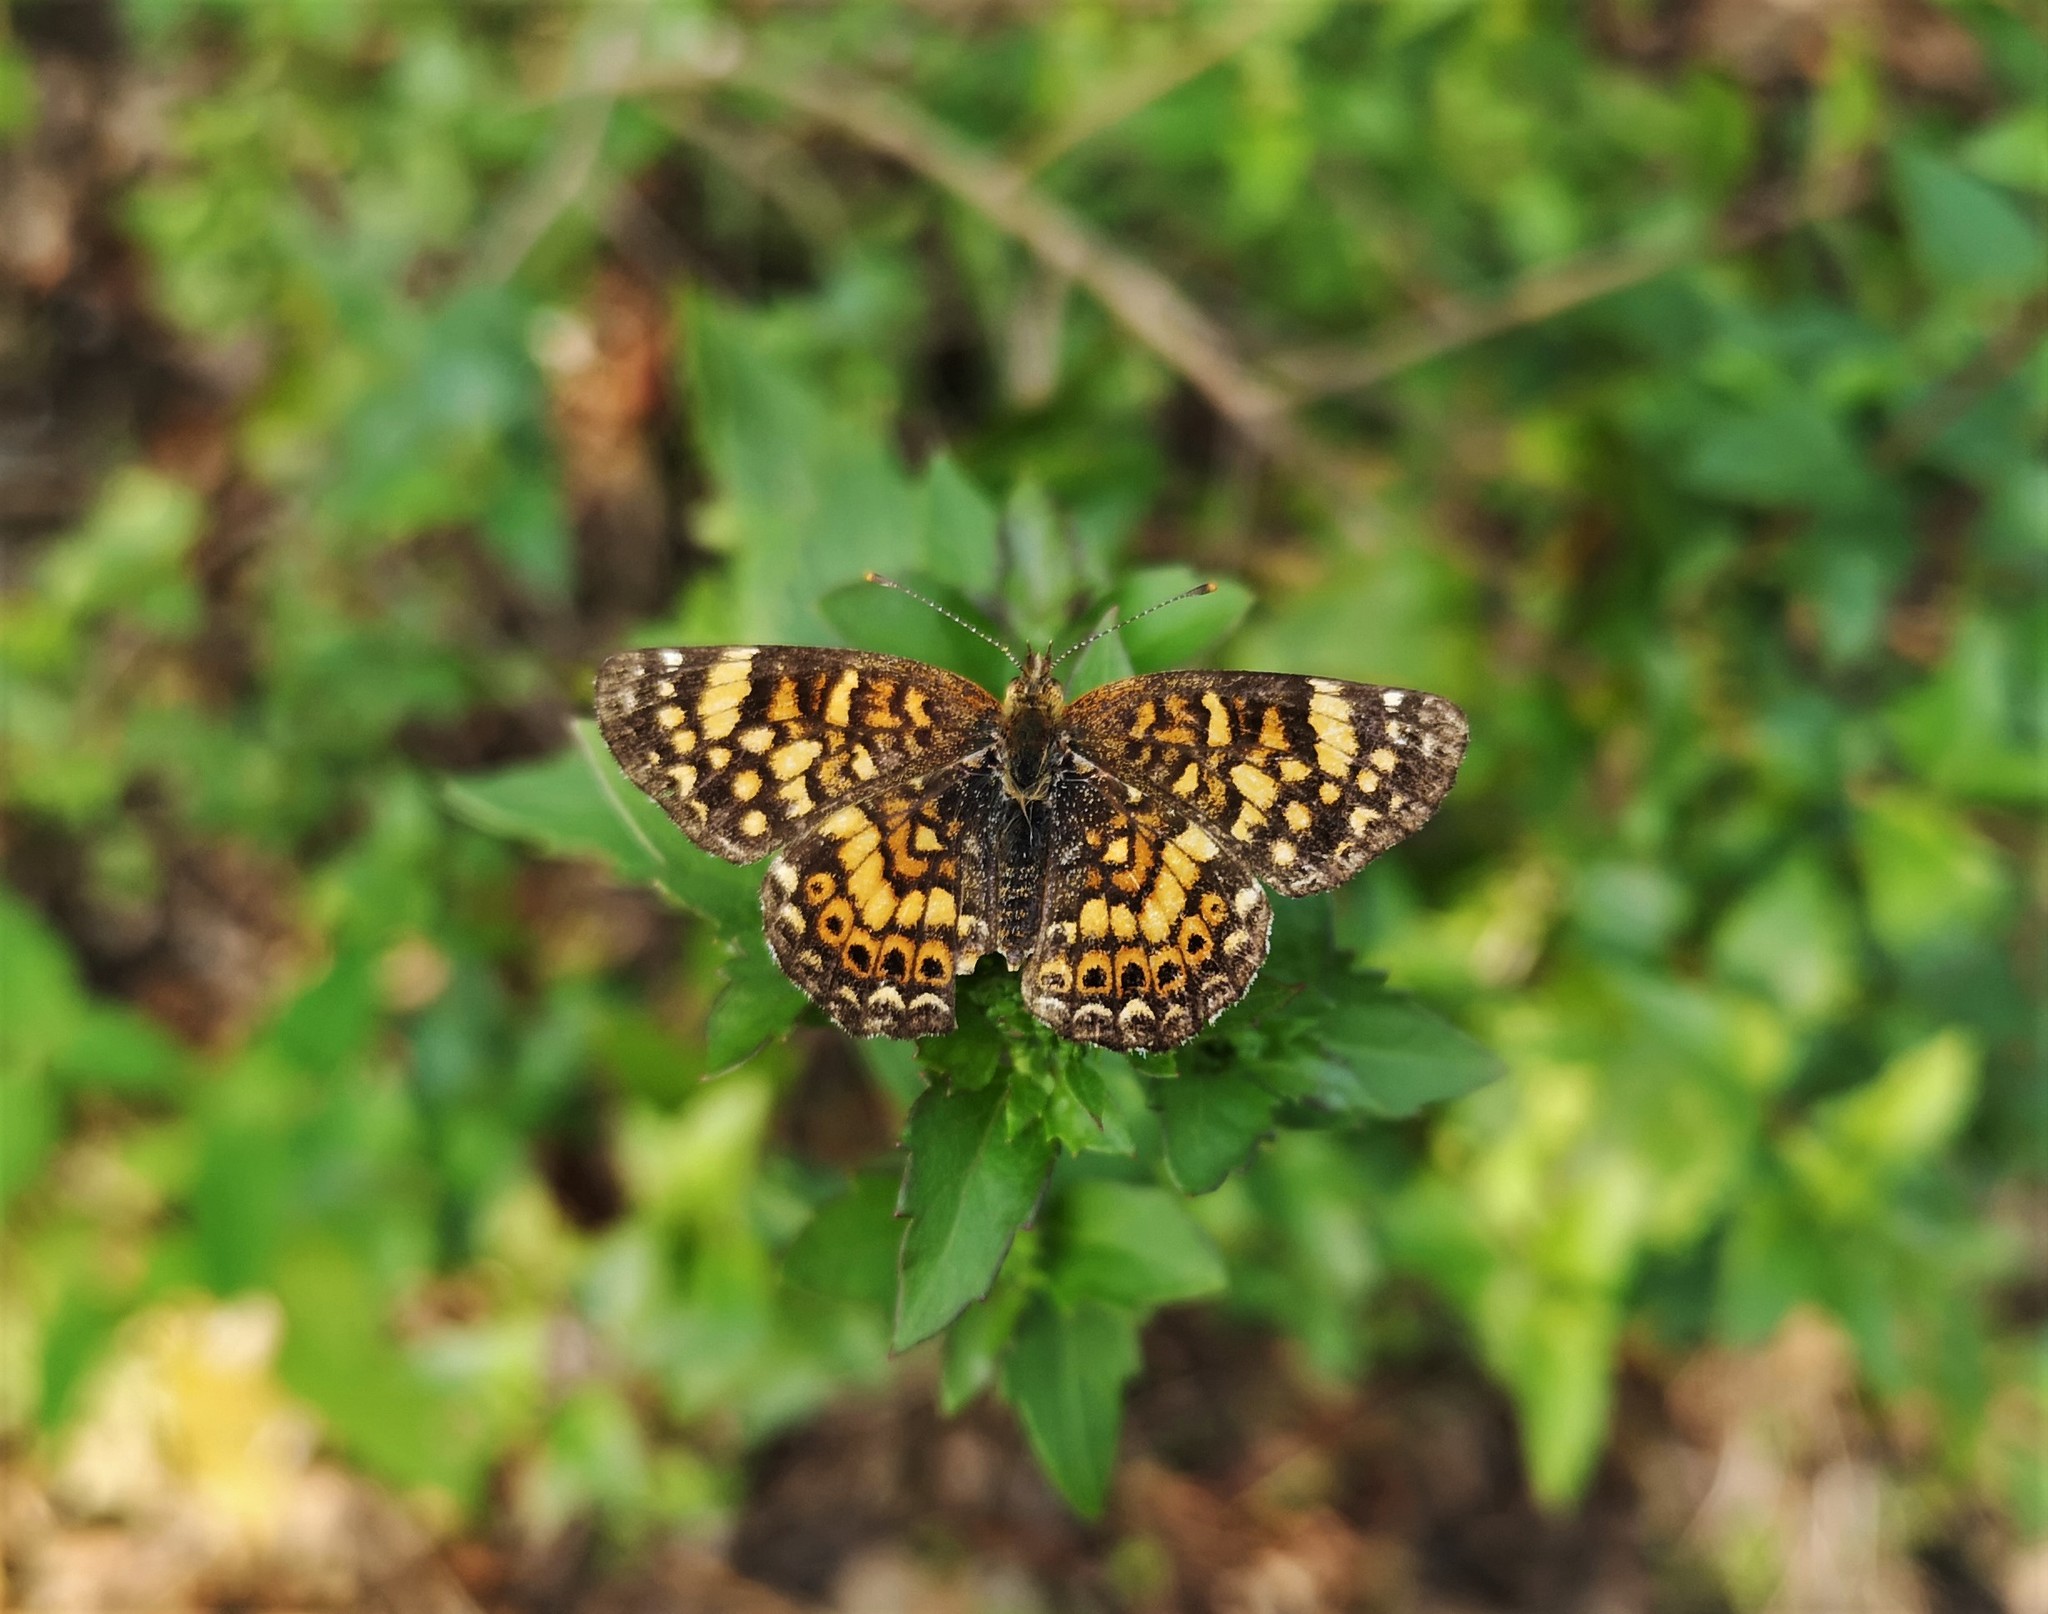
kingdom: Animalia
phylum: Arthropoda
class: Insecta
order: Lepidoptera
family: Nymphalidae
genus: Phyciodes
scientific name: Phyciodes picta
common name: Painted crescent
